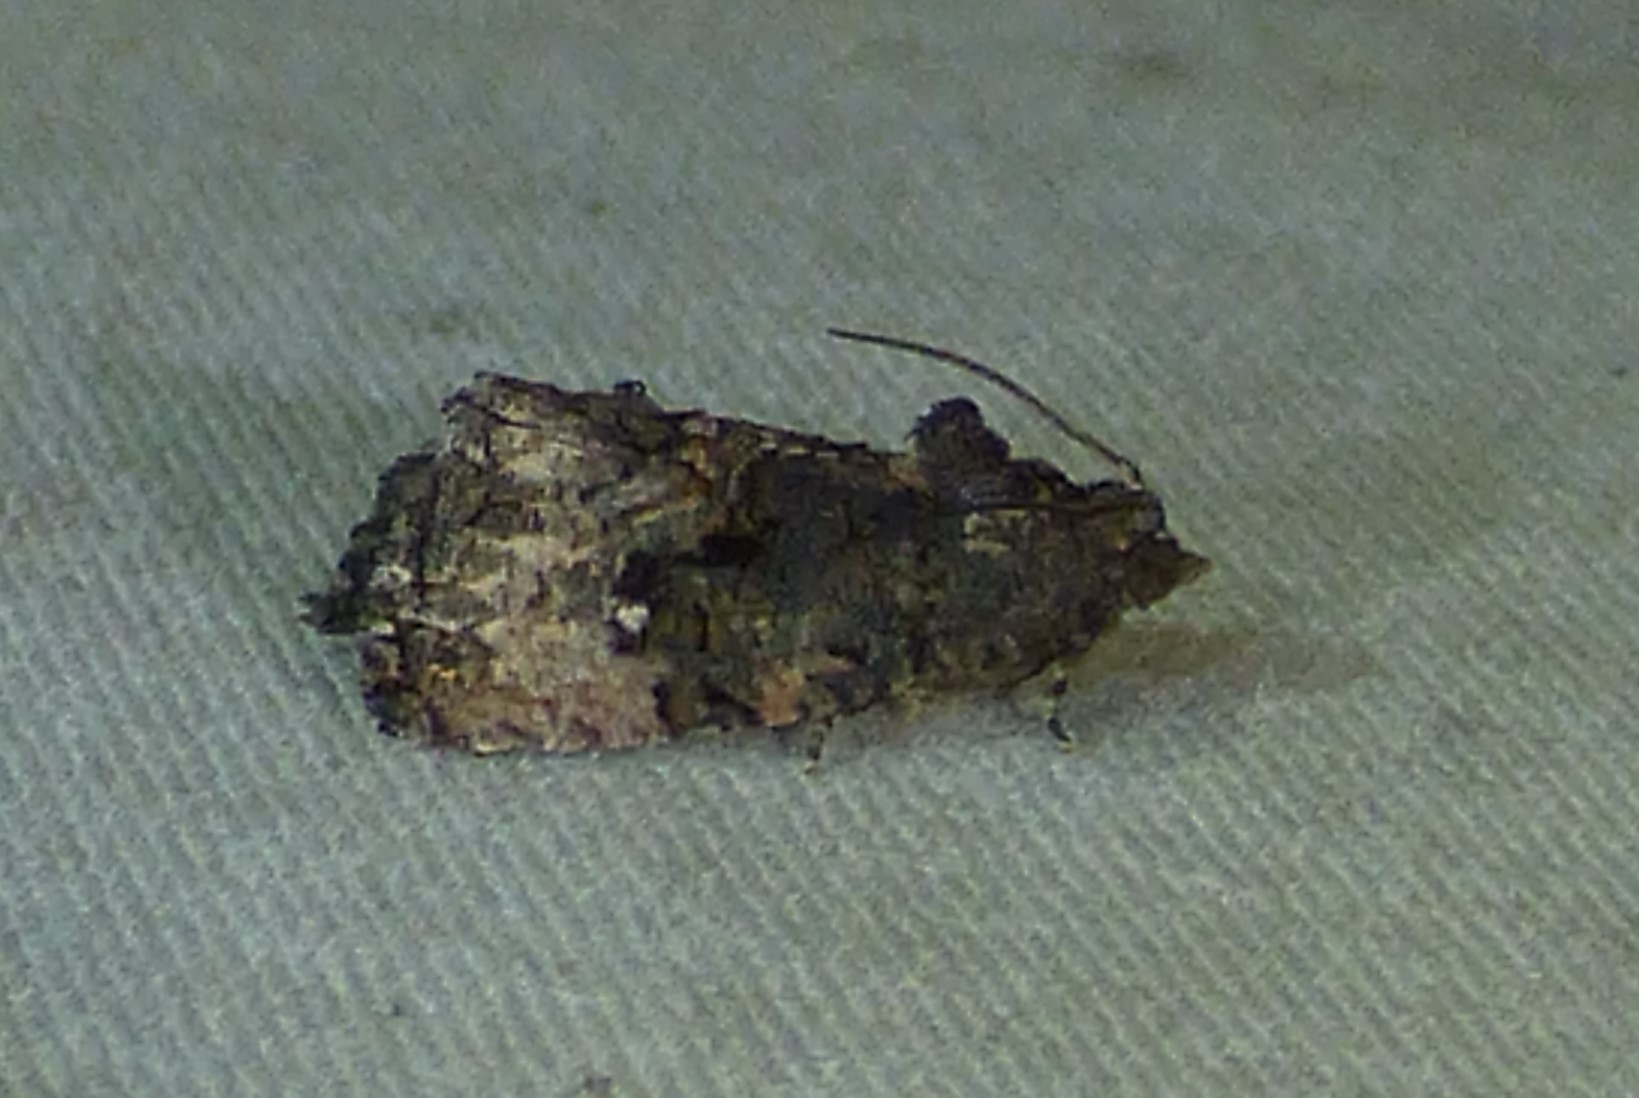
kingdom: Animalia
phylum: Arthropoda
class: Insecta
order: Lepidoptera
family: Tortricidae
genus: Gymnandrosoma
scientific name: Gymnandrosoma punctidiscanum
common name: Dotted ecdytolopha moth
